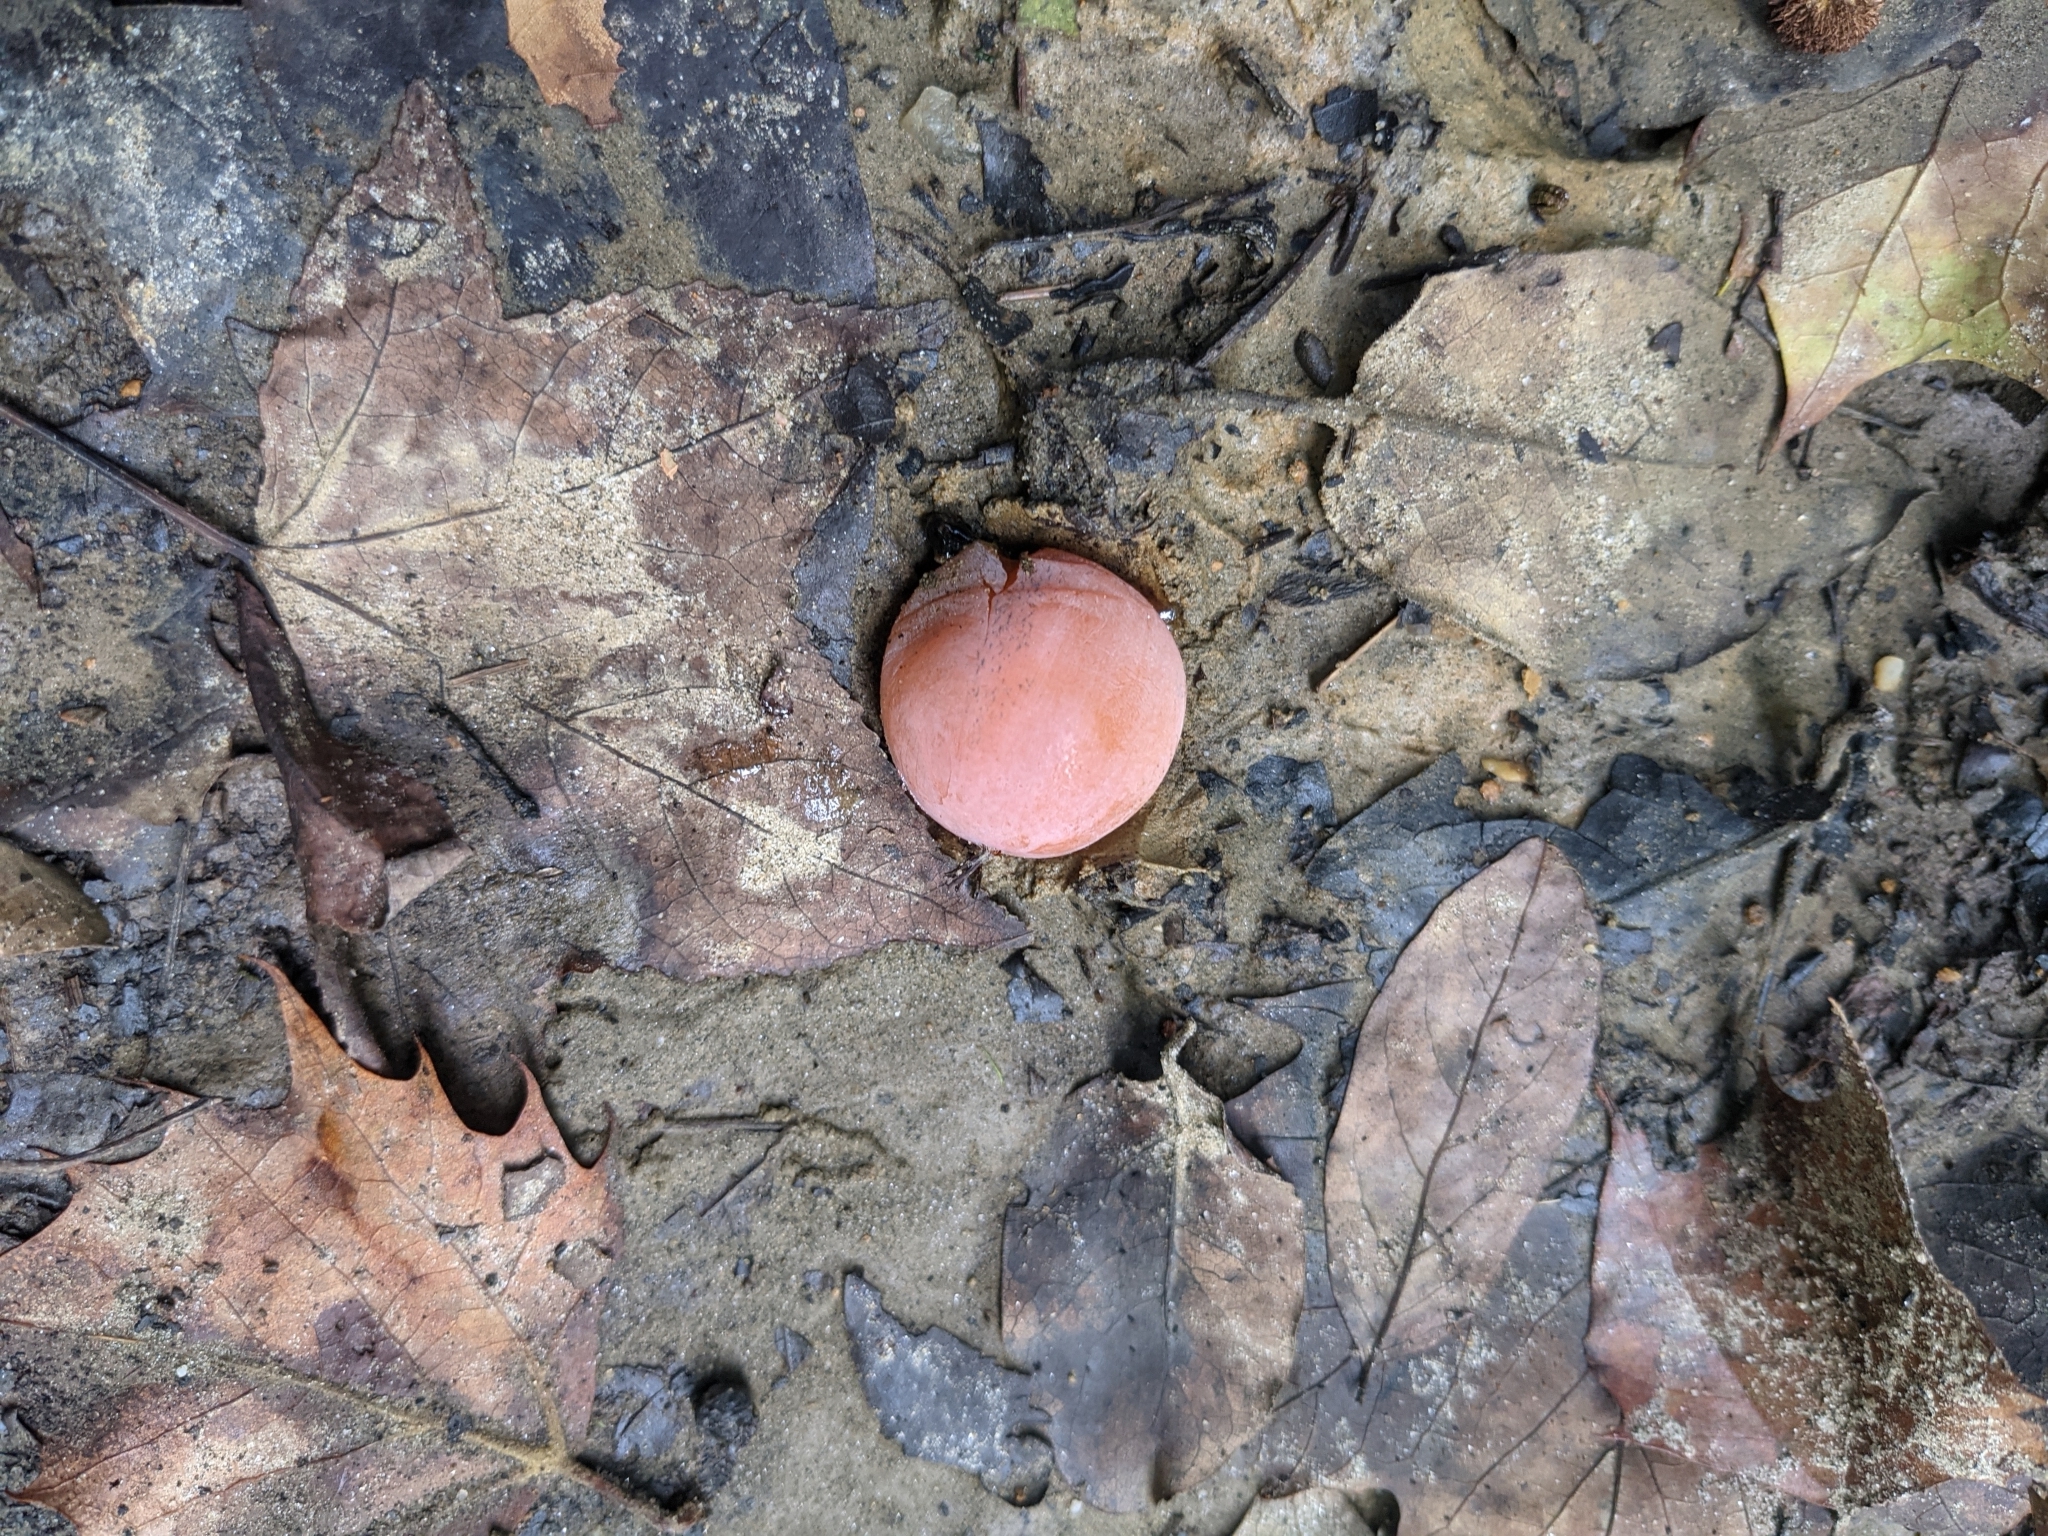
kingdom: Plantae
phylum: Tracheophyta
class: Magnoliopsida
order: Ericales
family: Ebenaceae
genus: Diospyros
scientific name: Diospyros virginiana
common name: Persimmon
